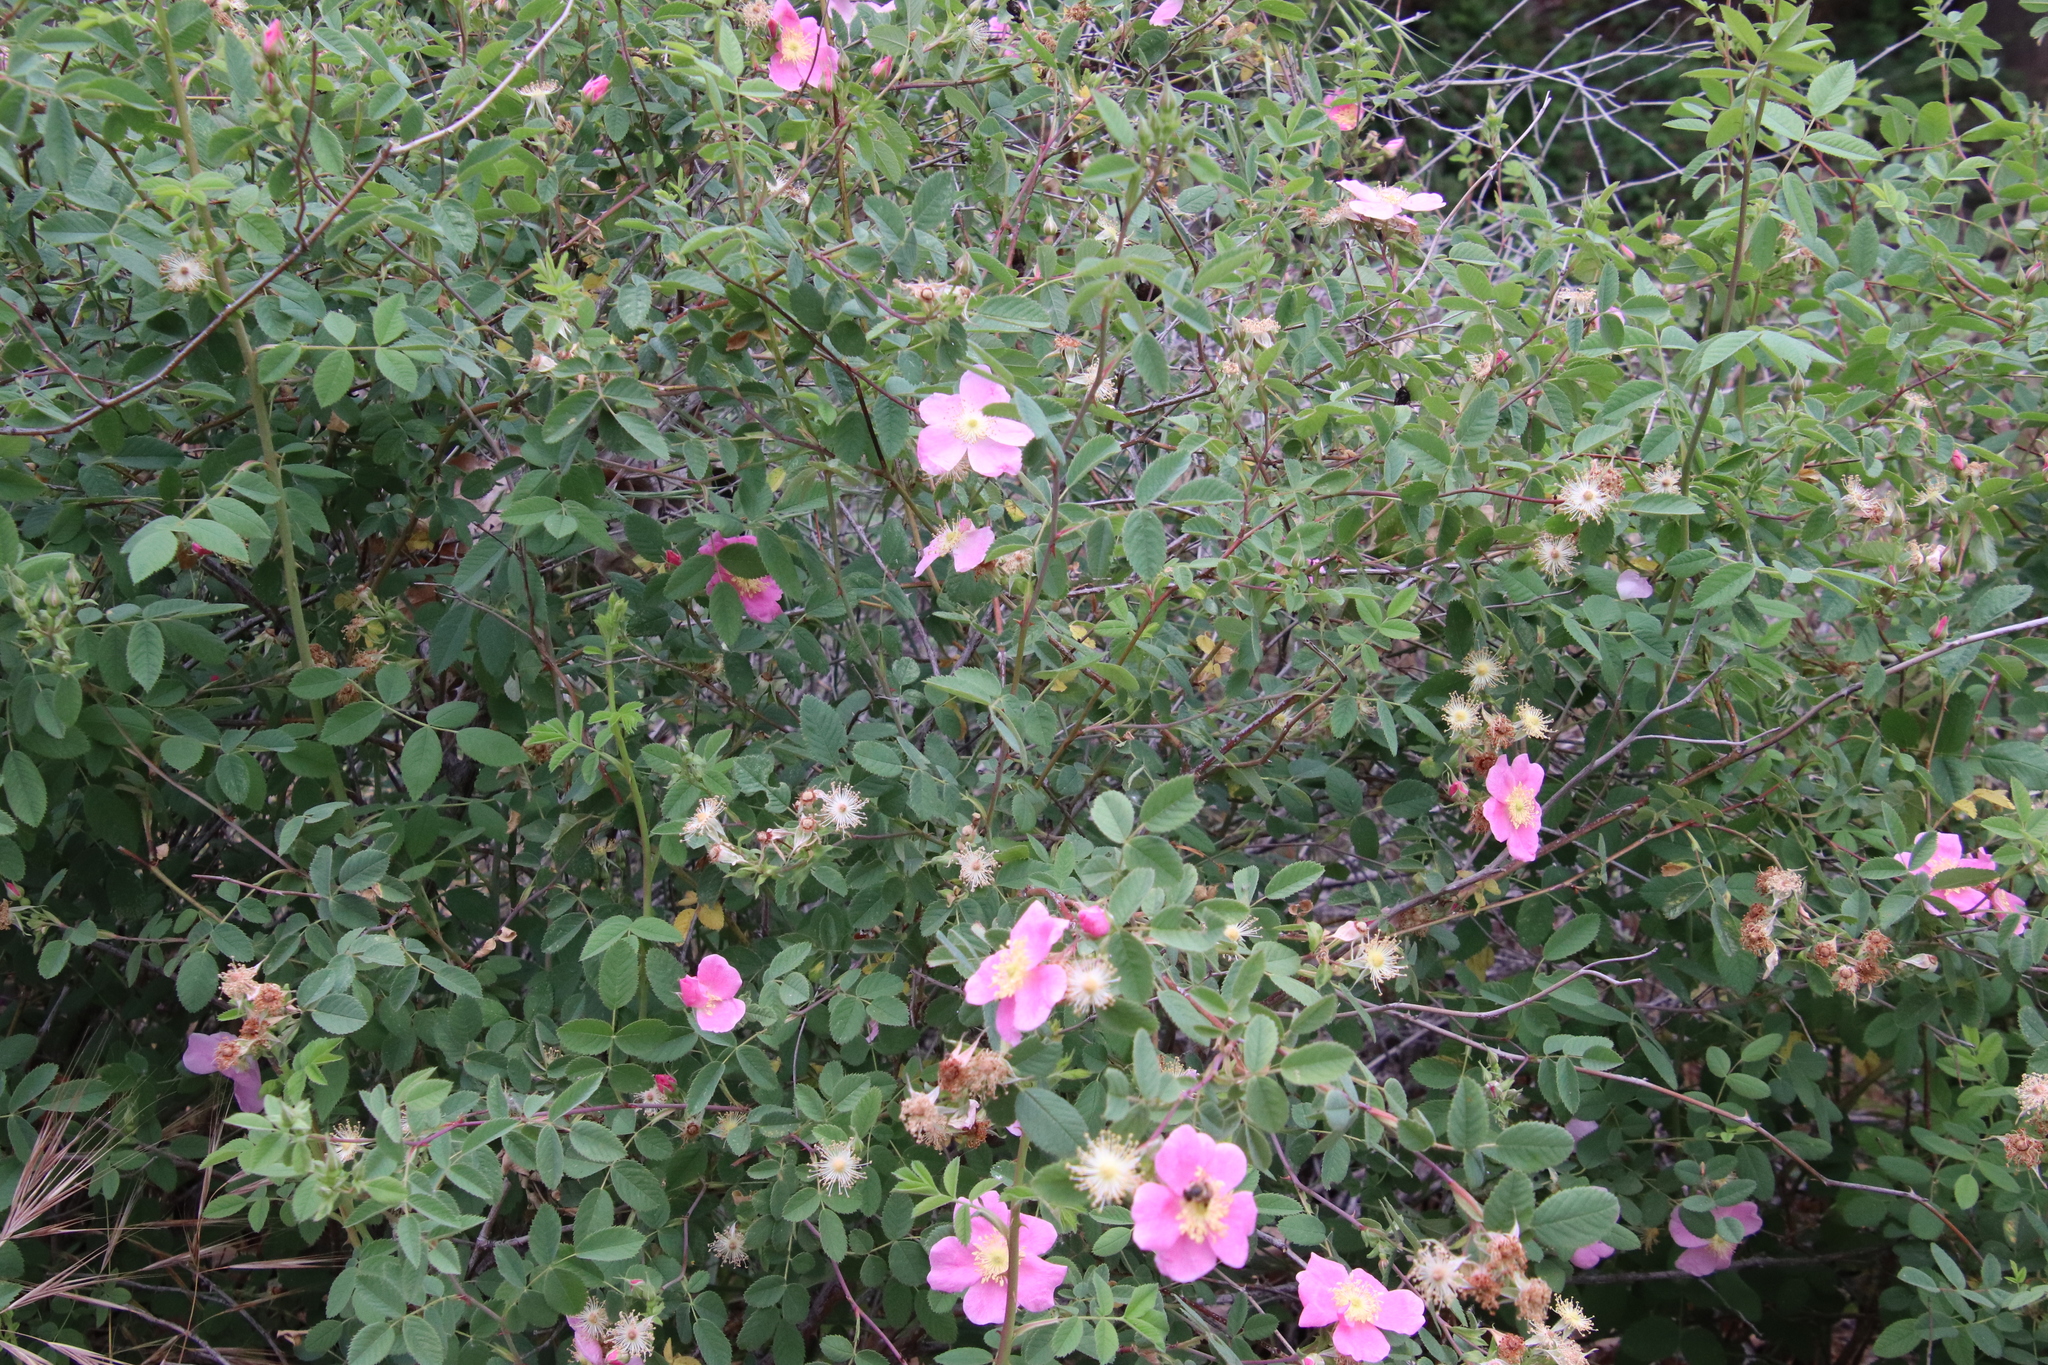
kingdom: Plantae
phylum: Tracheophyta
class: Magnoliopsida
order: Rosales
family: Rosaceae
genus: Rosa
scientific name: Rosa californica
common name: California rose
